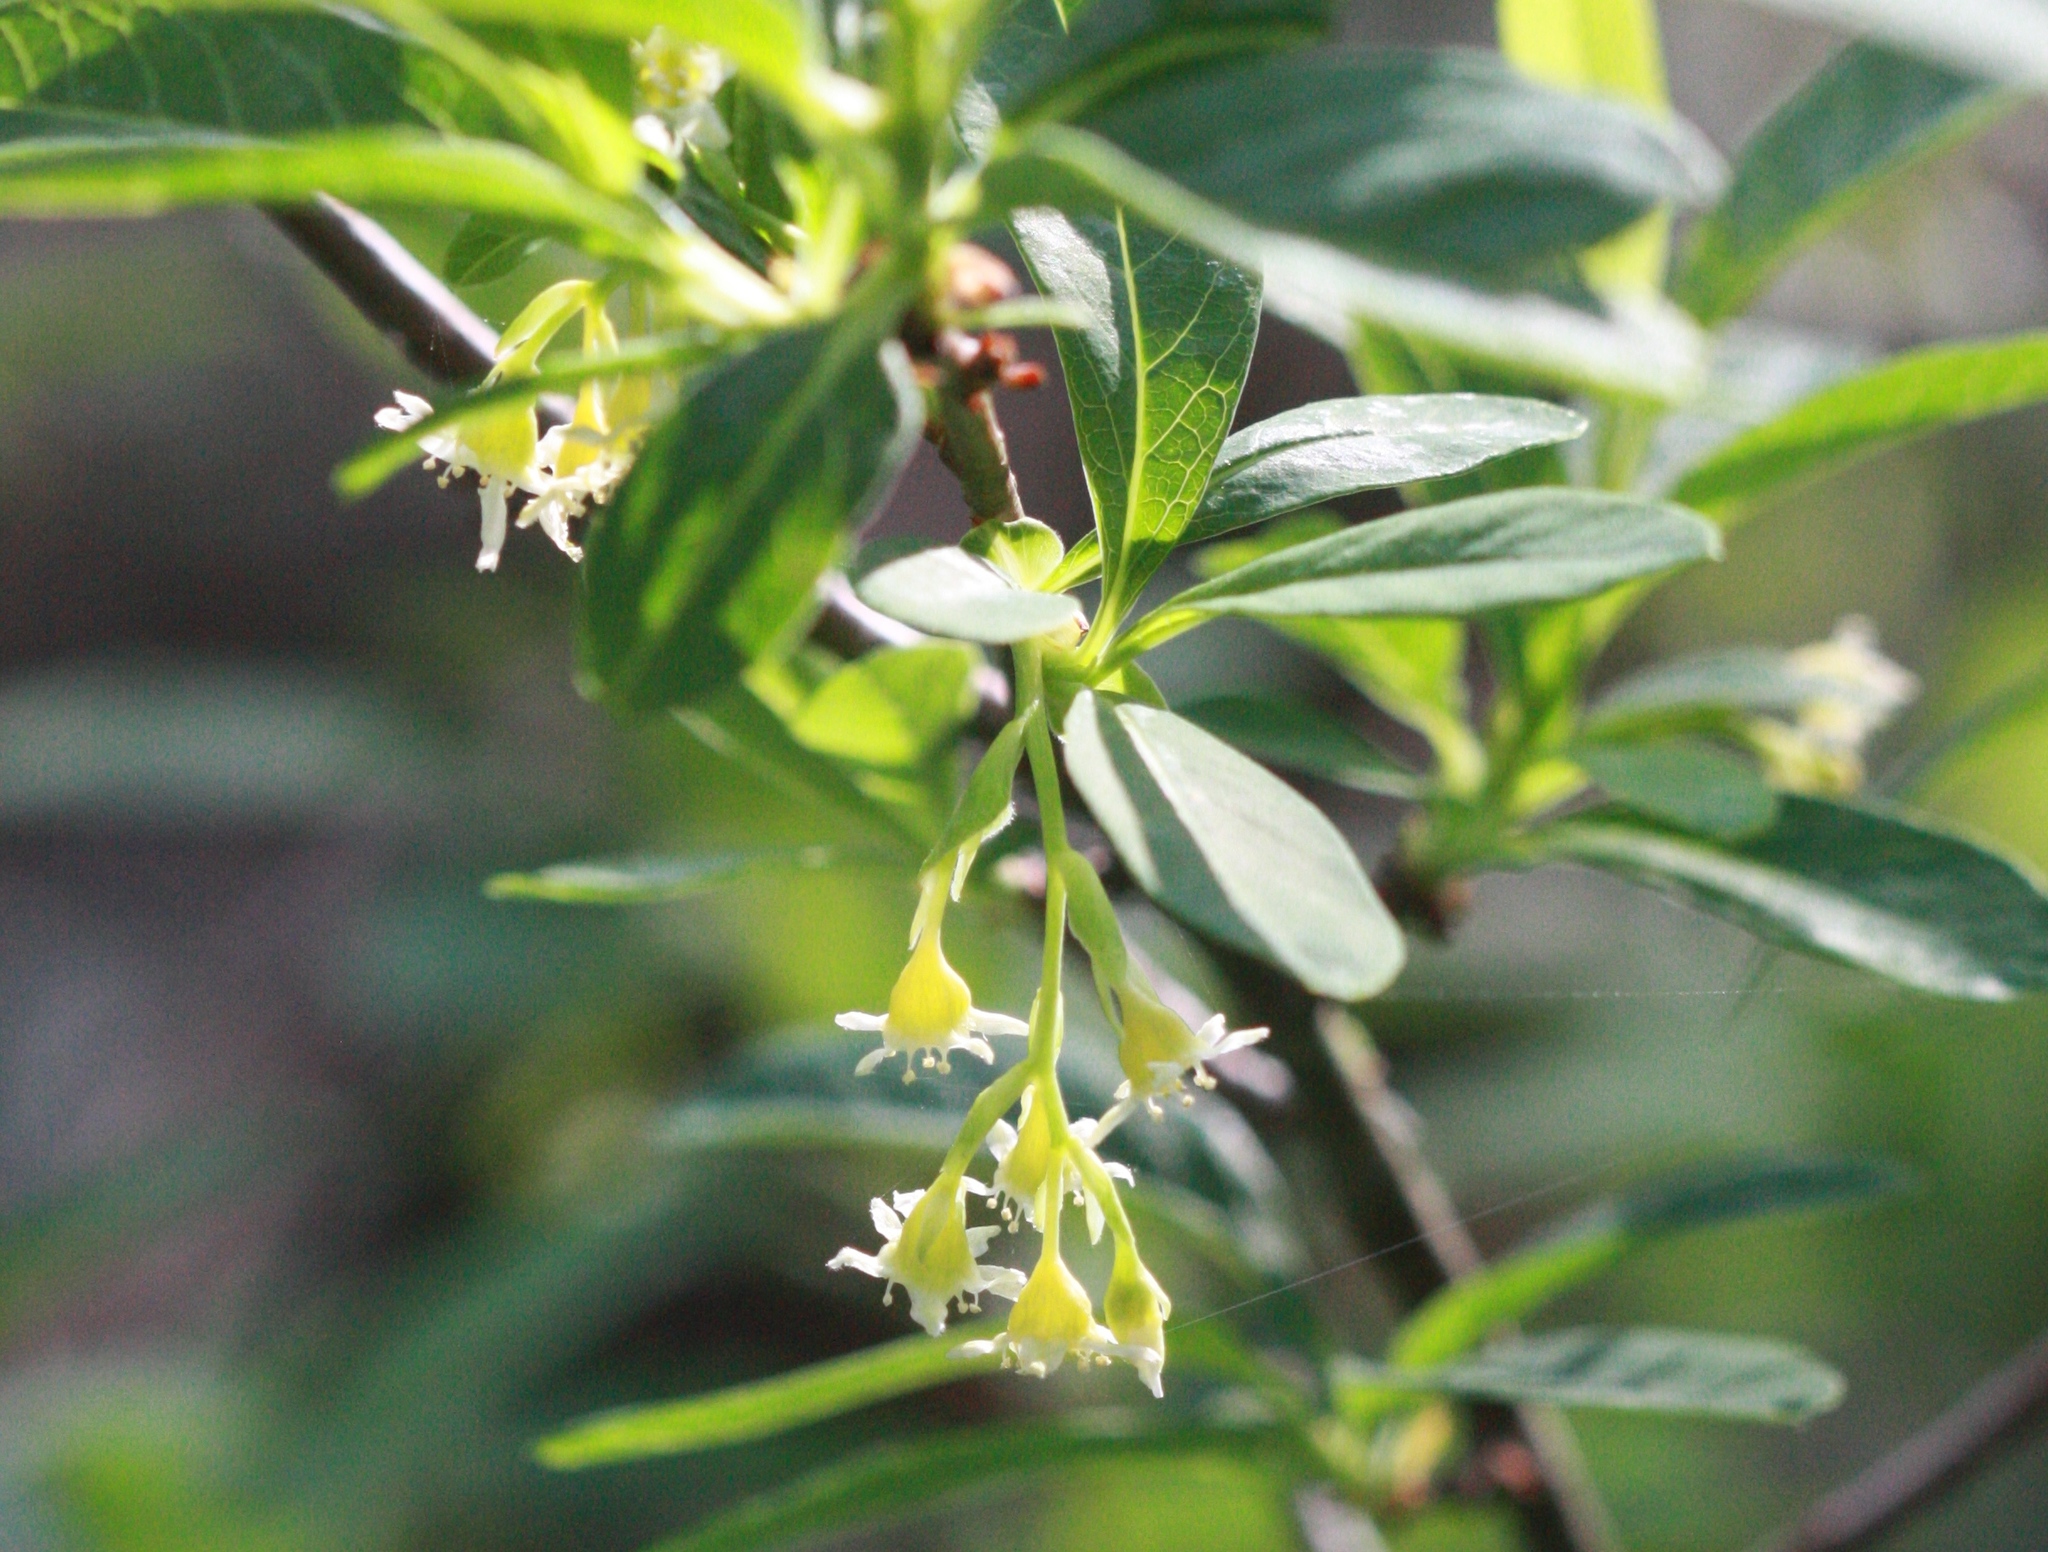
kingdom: Plantae
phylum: Tracheophyta
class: Magnoliopsida
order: Rosales
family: Rosaceae
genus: Oemleria
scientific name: Oemleria cerasiformis
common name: Osoberry
